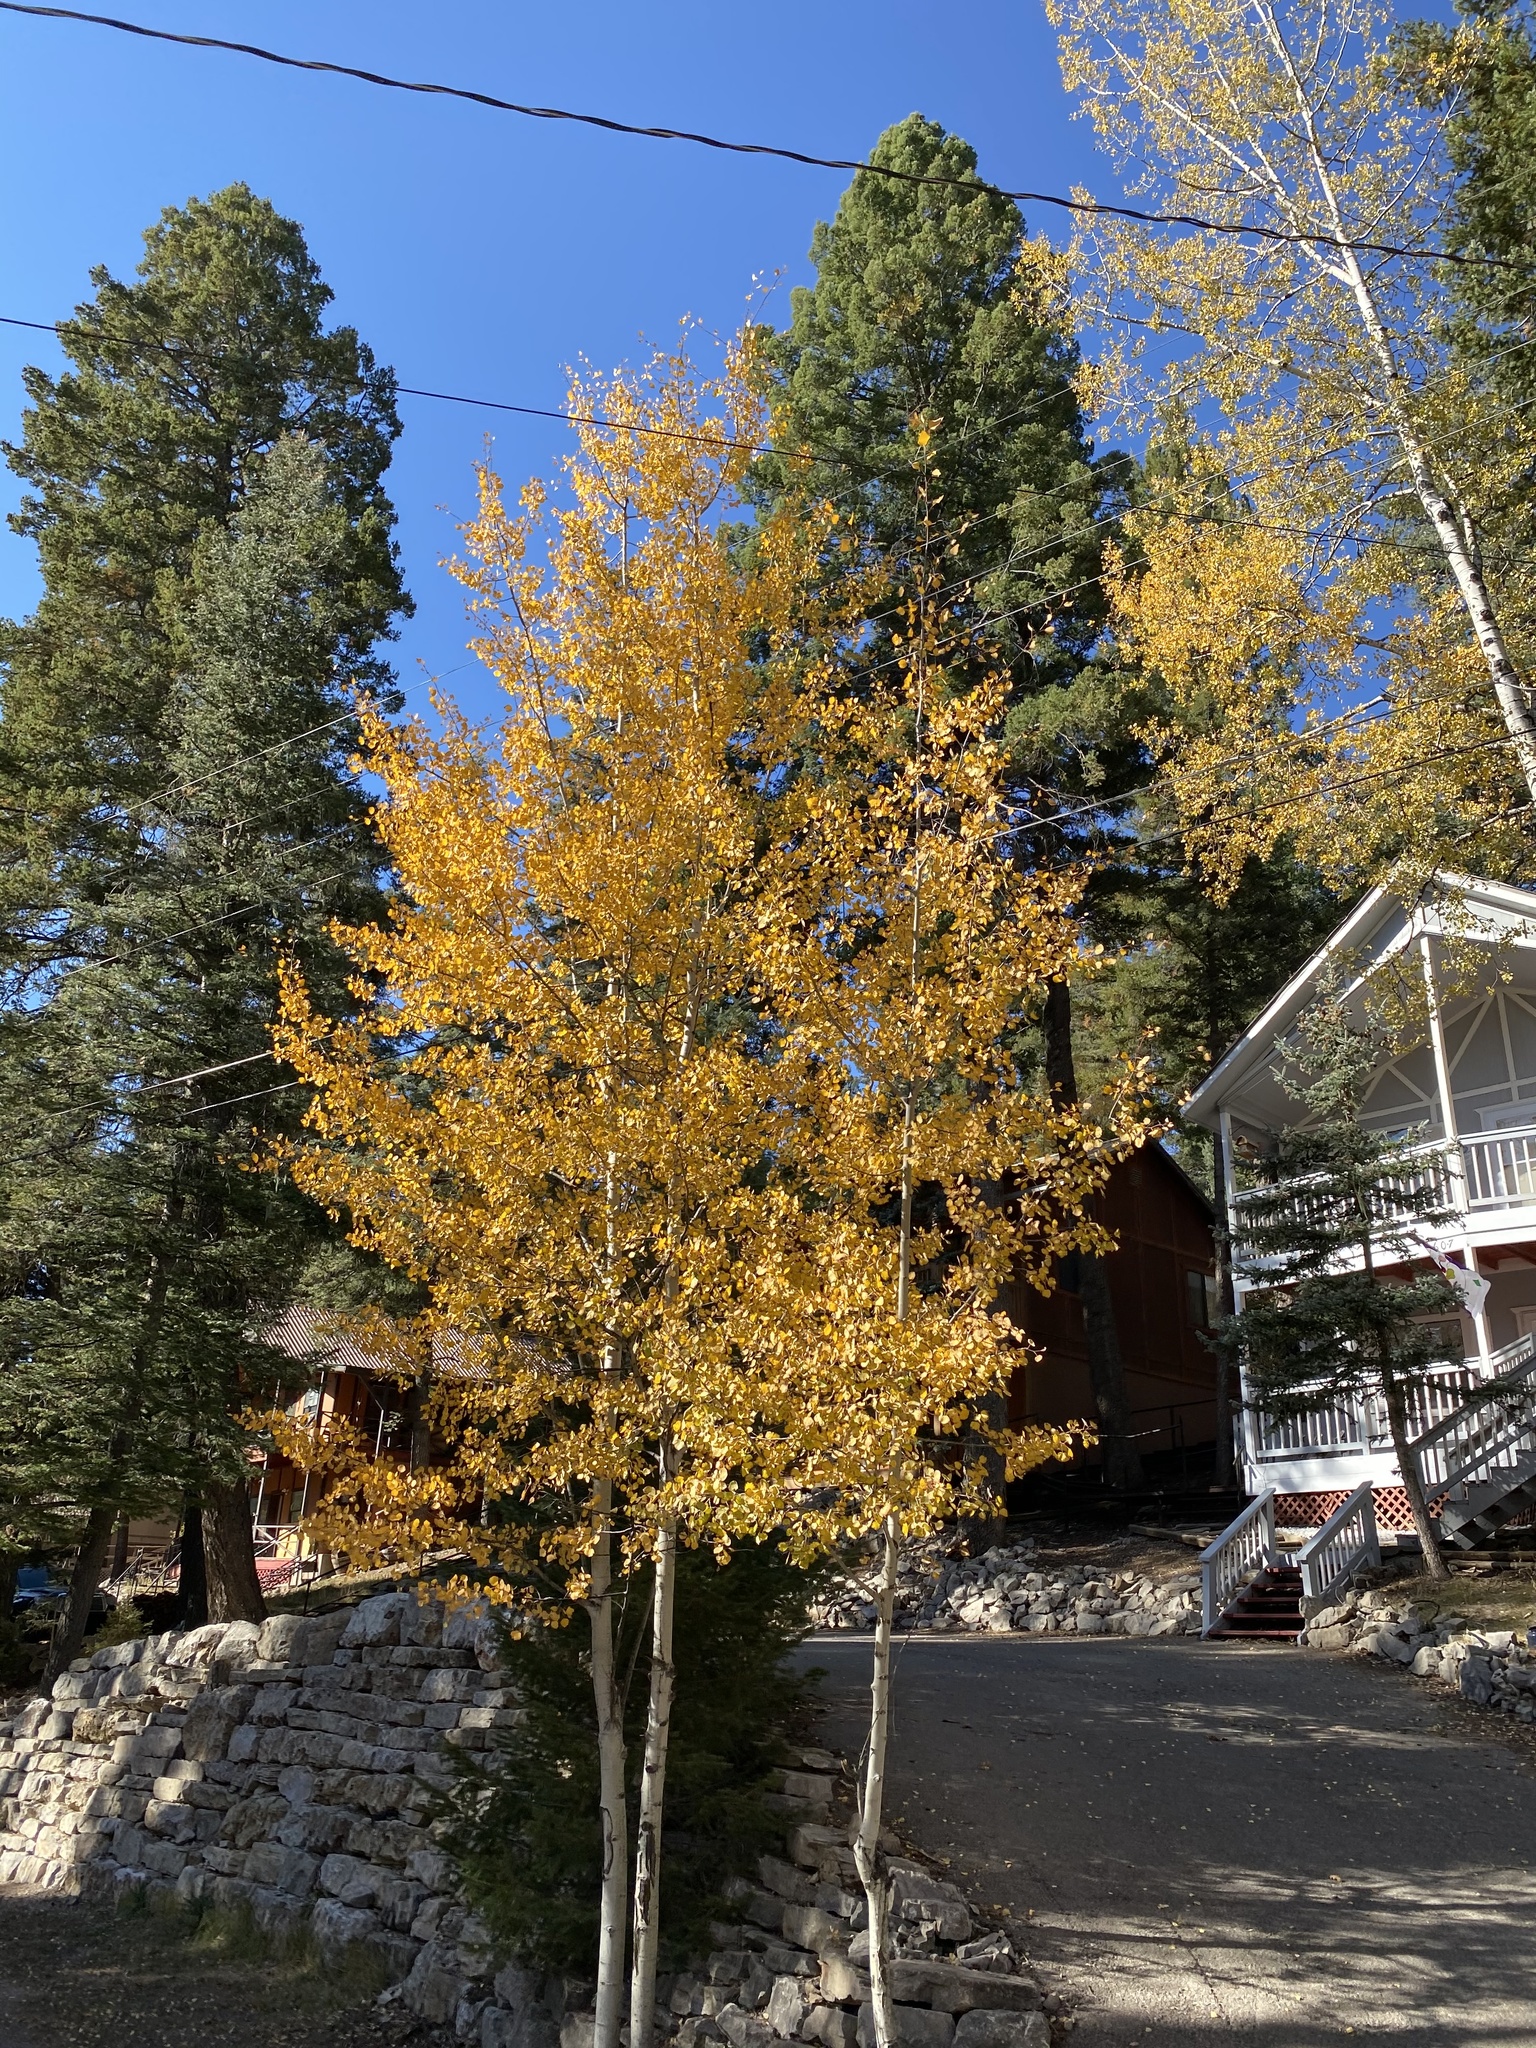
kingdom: Plantae
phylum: Tracheophyta
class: Magnoliopsida
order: Malpighiales
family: Salicaceae
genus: Populus
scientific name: Populus tremuloides
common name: Quaking aspen
